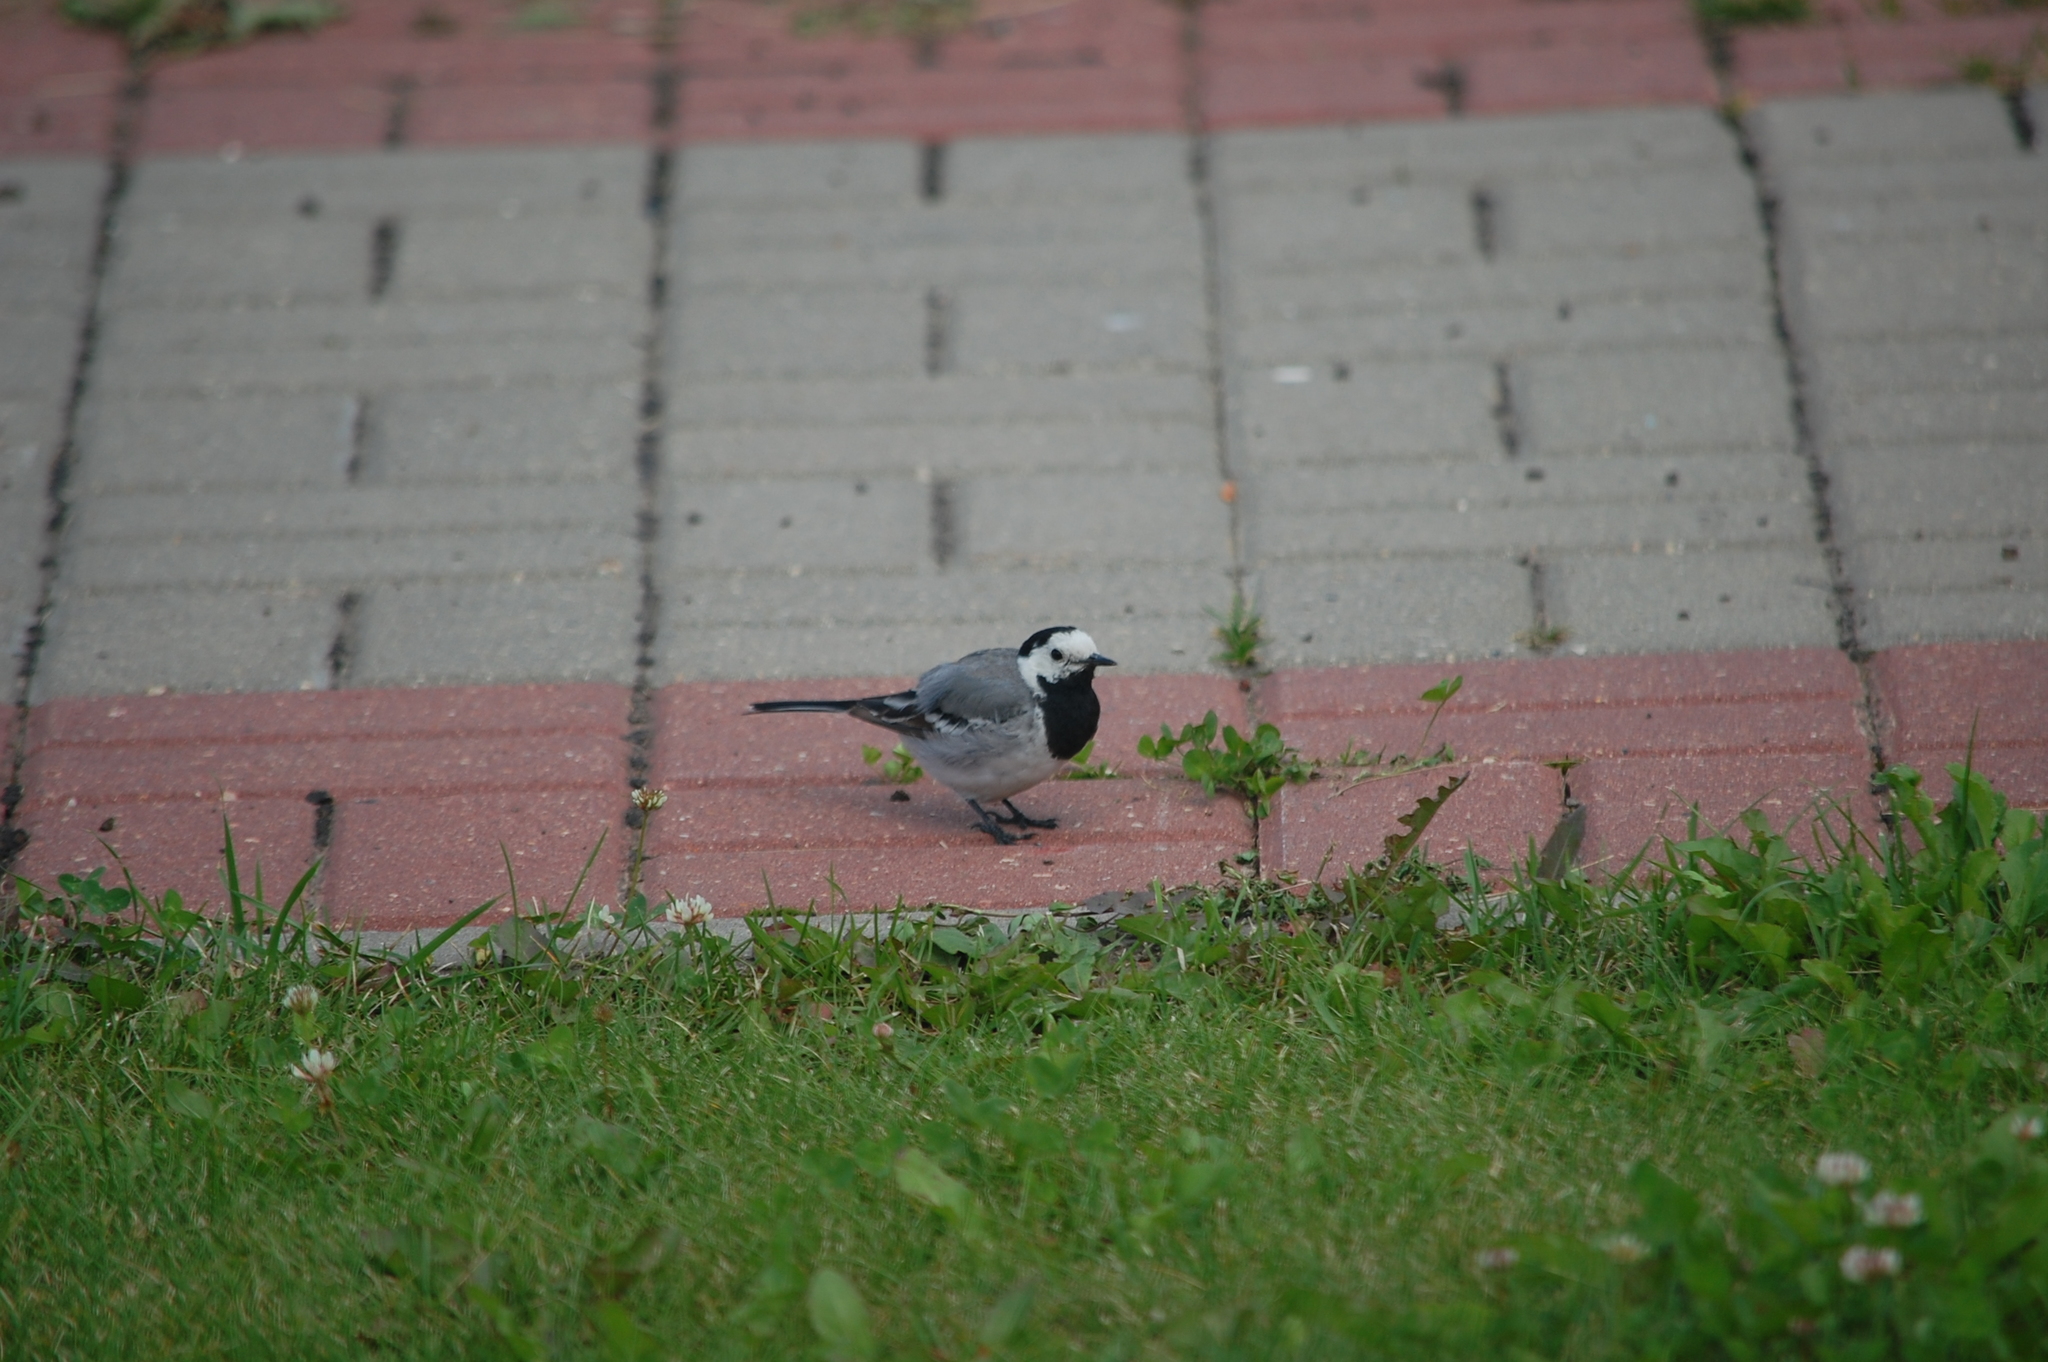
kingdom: Animalia
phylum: Chordata
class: Aves
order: Passeriformes
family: Motacillidae
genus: Motacilla
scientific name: Motacilla alba
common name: White wagtail
